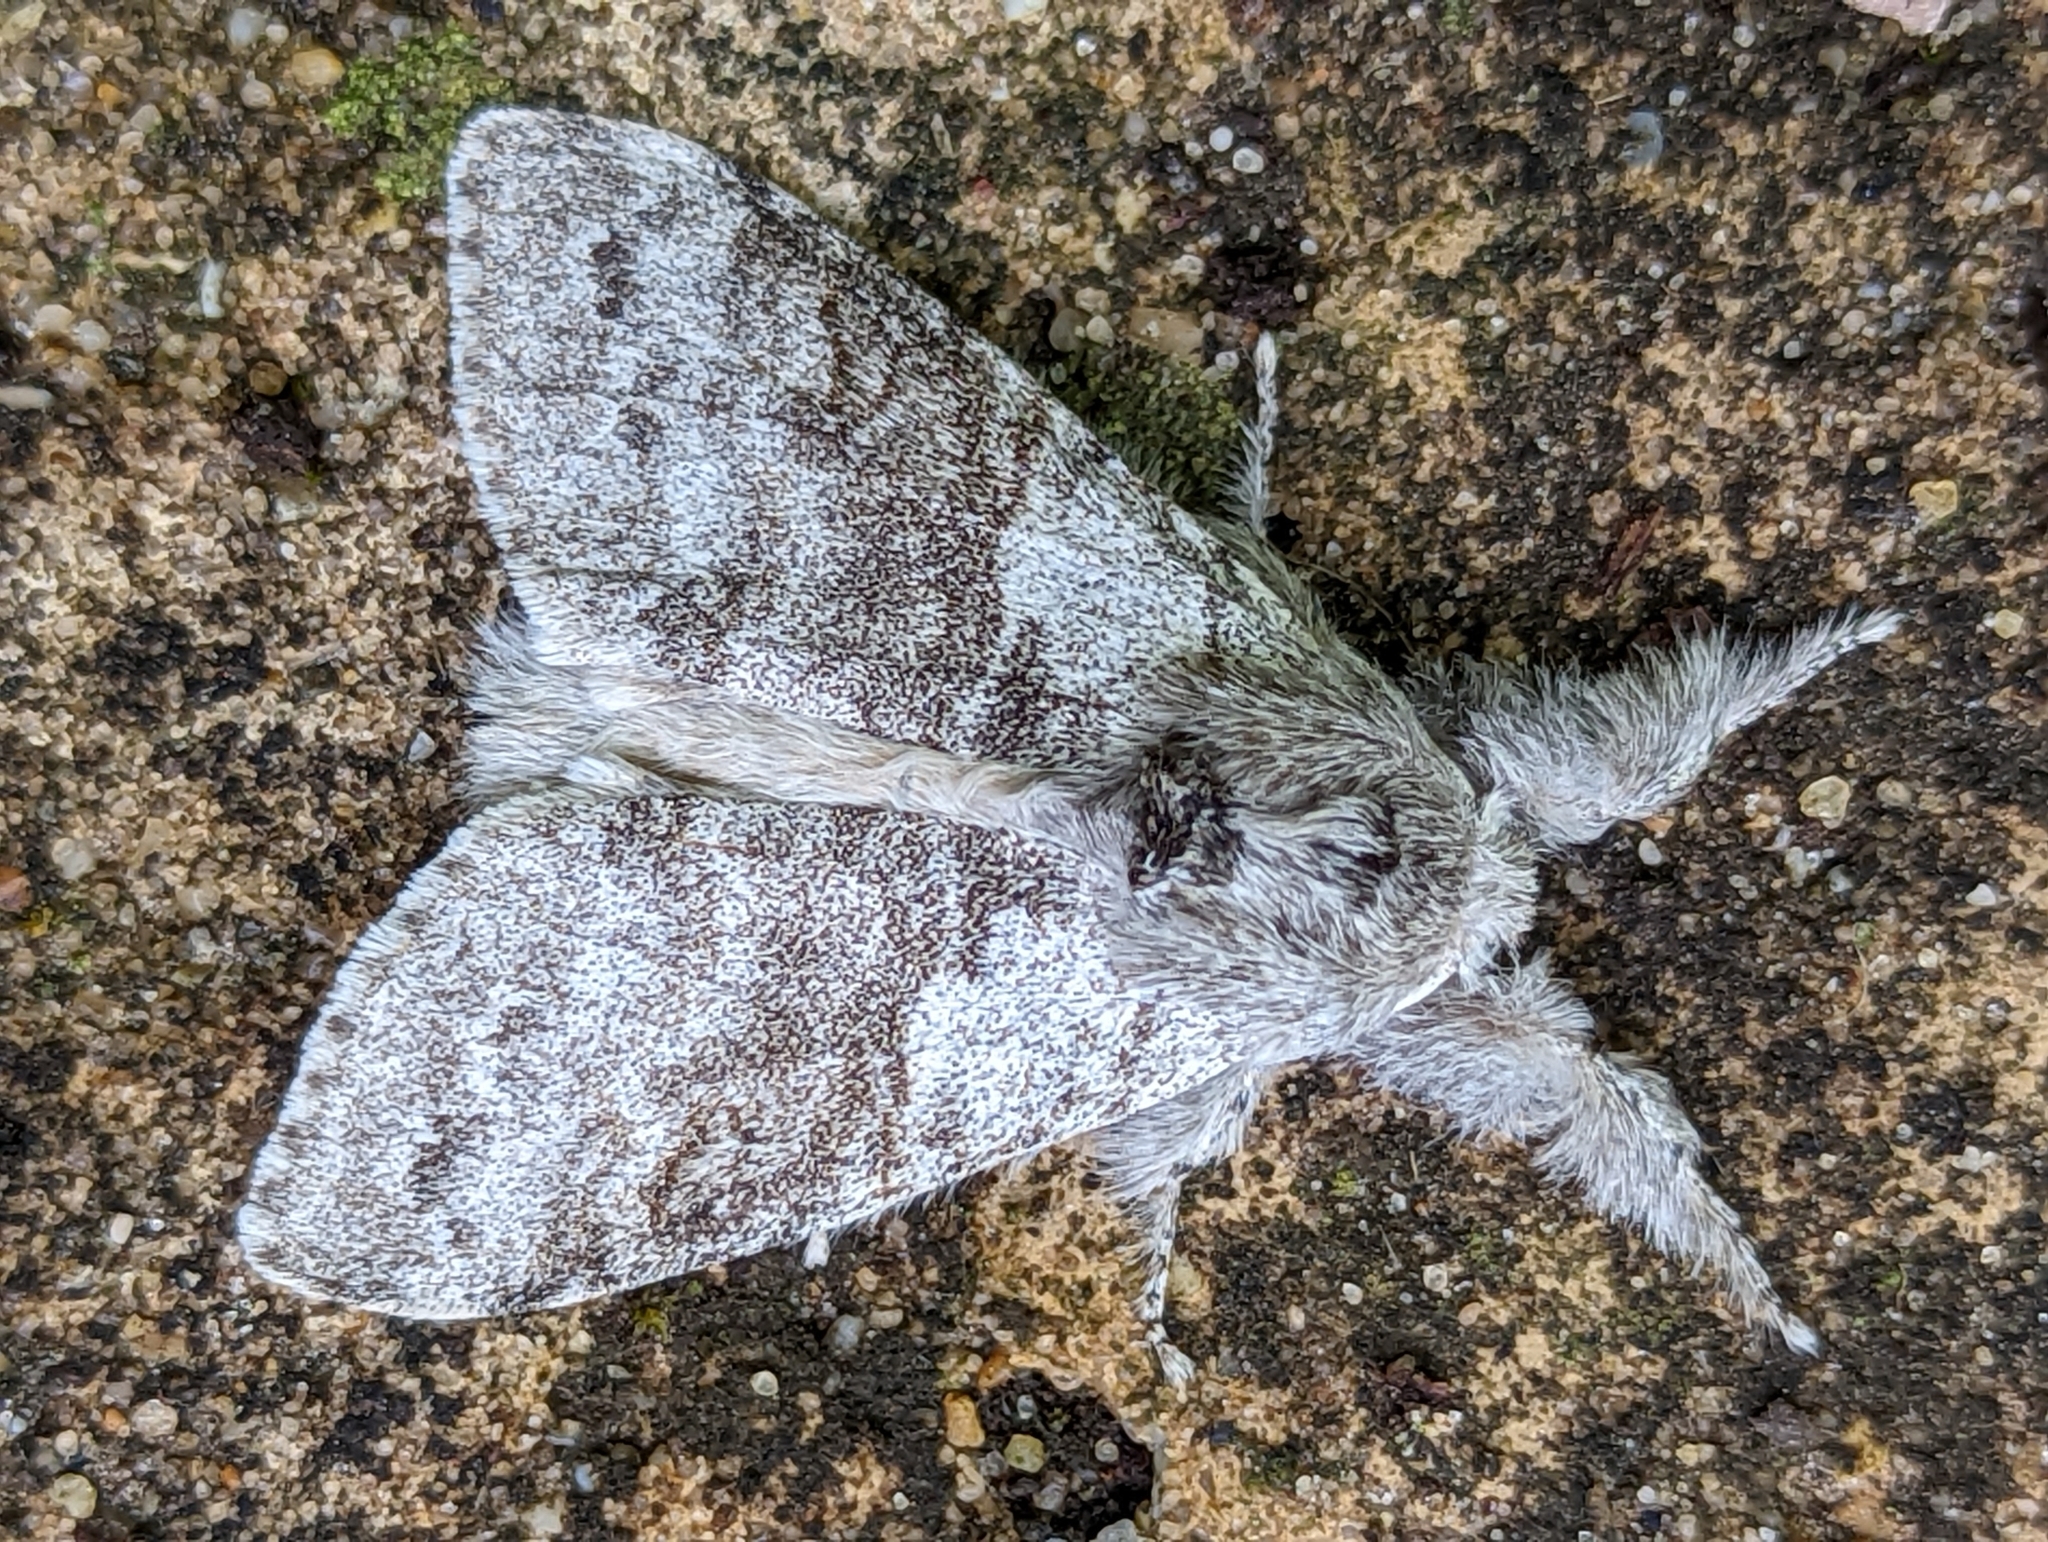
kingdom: Animalia
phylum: Arthropoda
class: Insecta
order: Lepidoptera
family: Erebidae
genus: Calliteara
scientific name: Calliteara pudibunda
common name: Pale tussock
